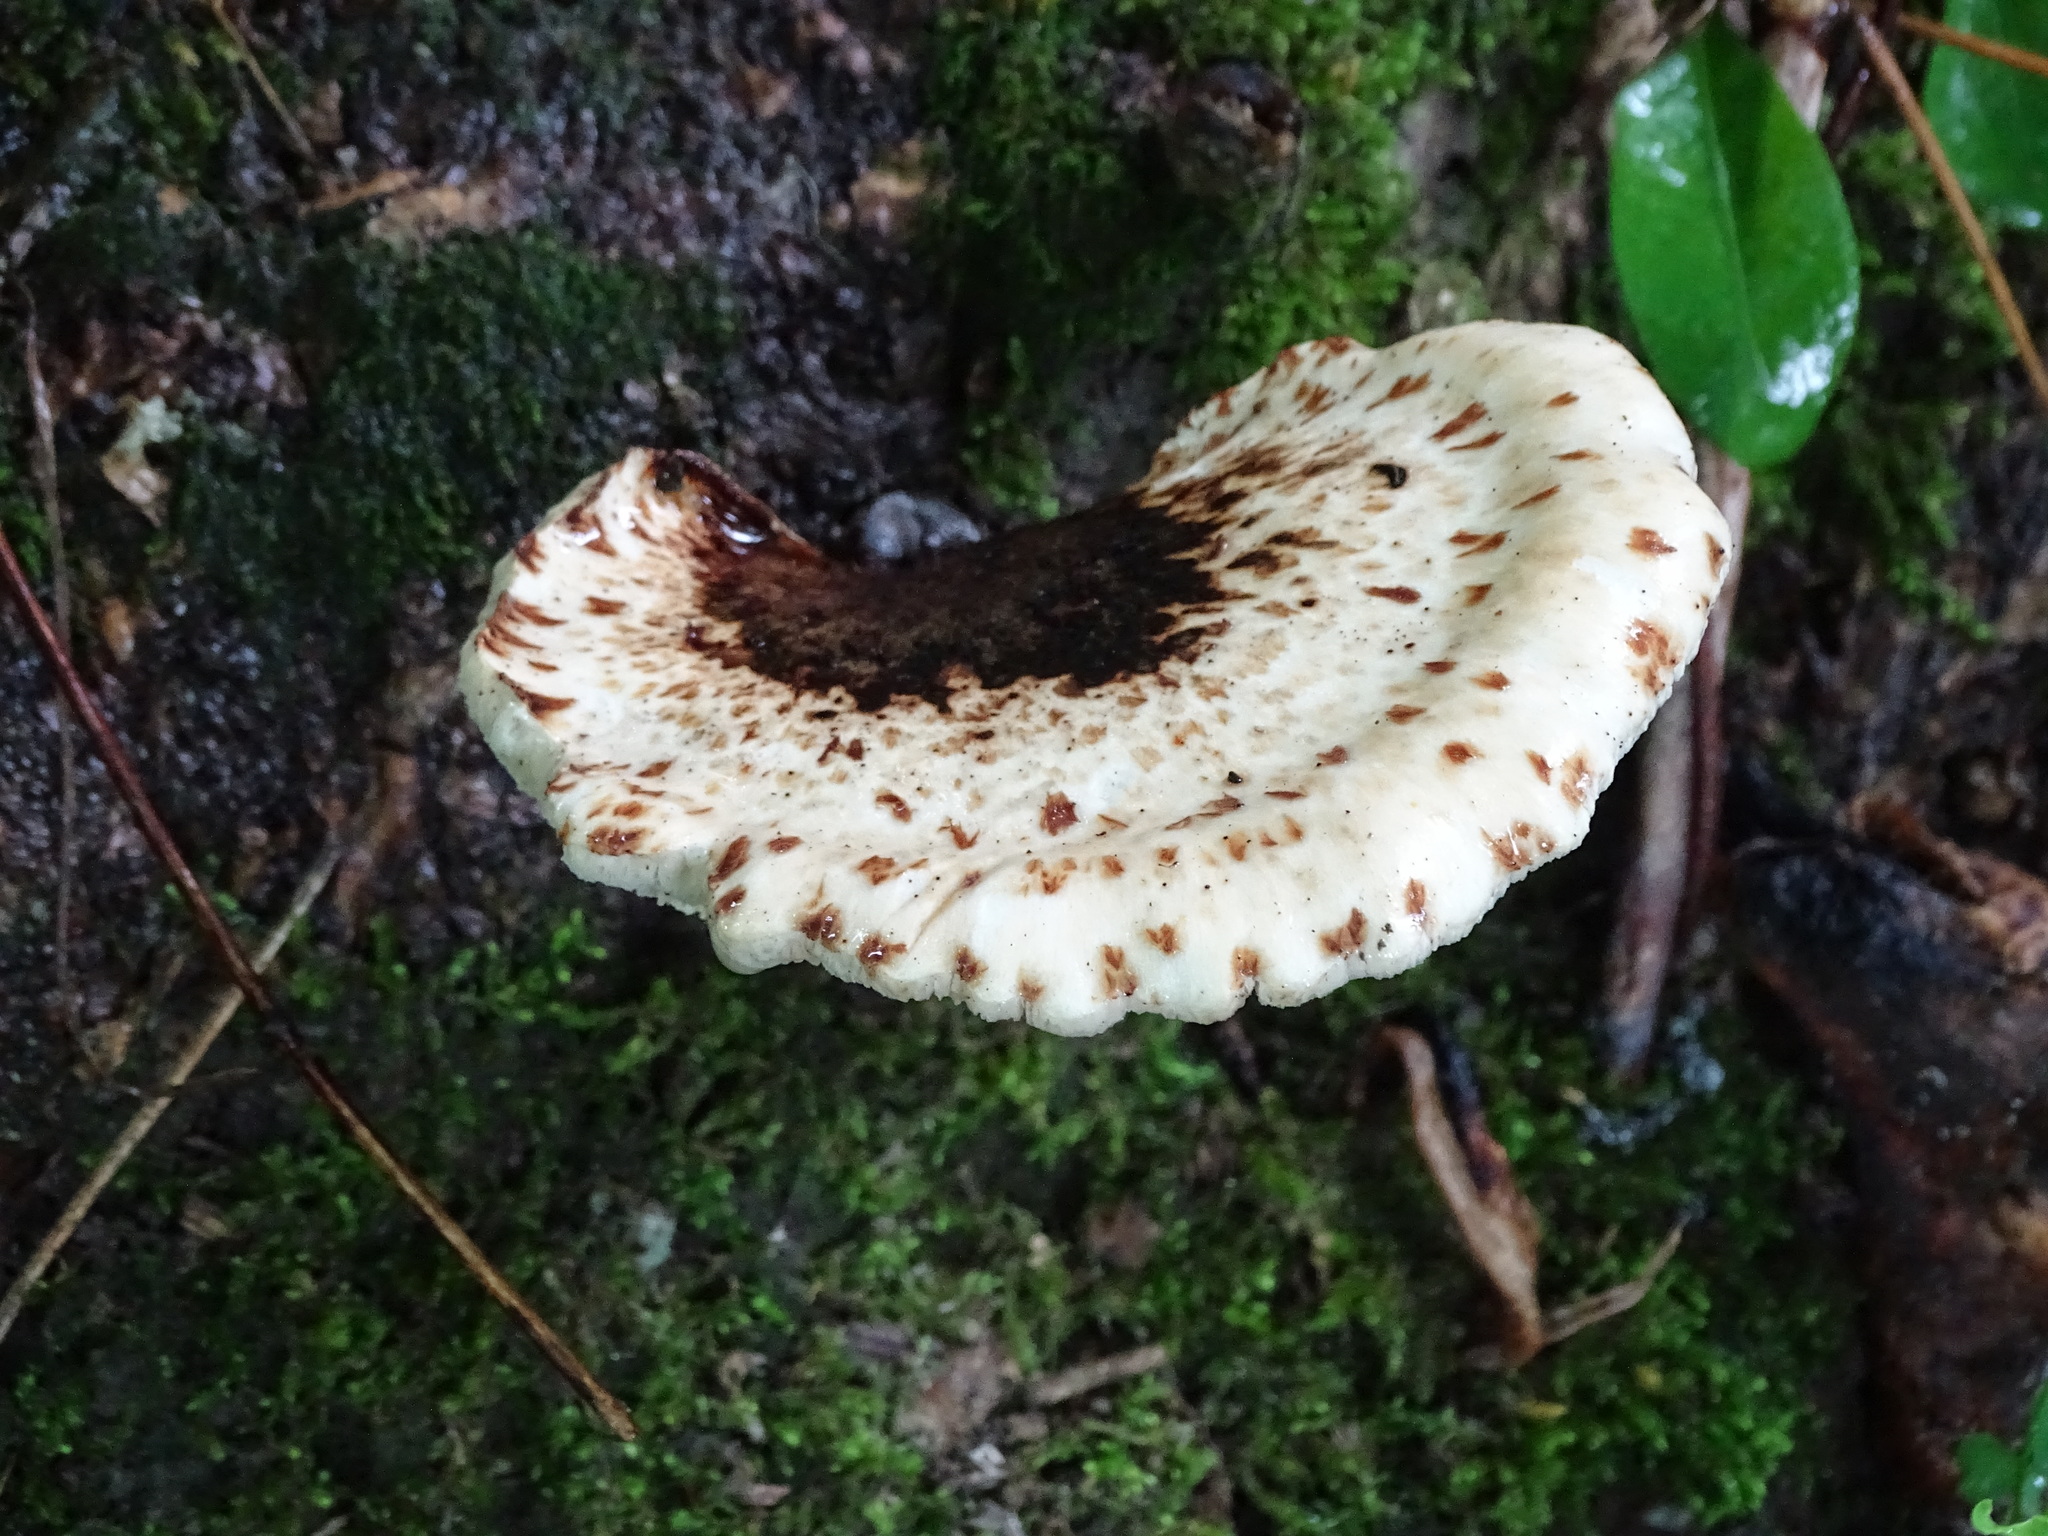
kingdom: Fungi
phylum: Basidiomycota
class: Agaricomycetes
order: Polyporales
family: Polyporaceae
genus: Cerioporus
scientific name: Cerioporus squamosus
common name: Dryad's saddle
